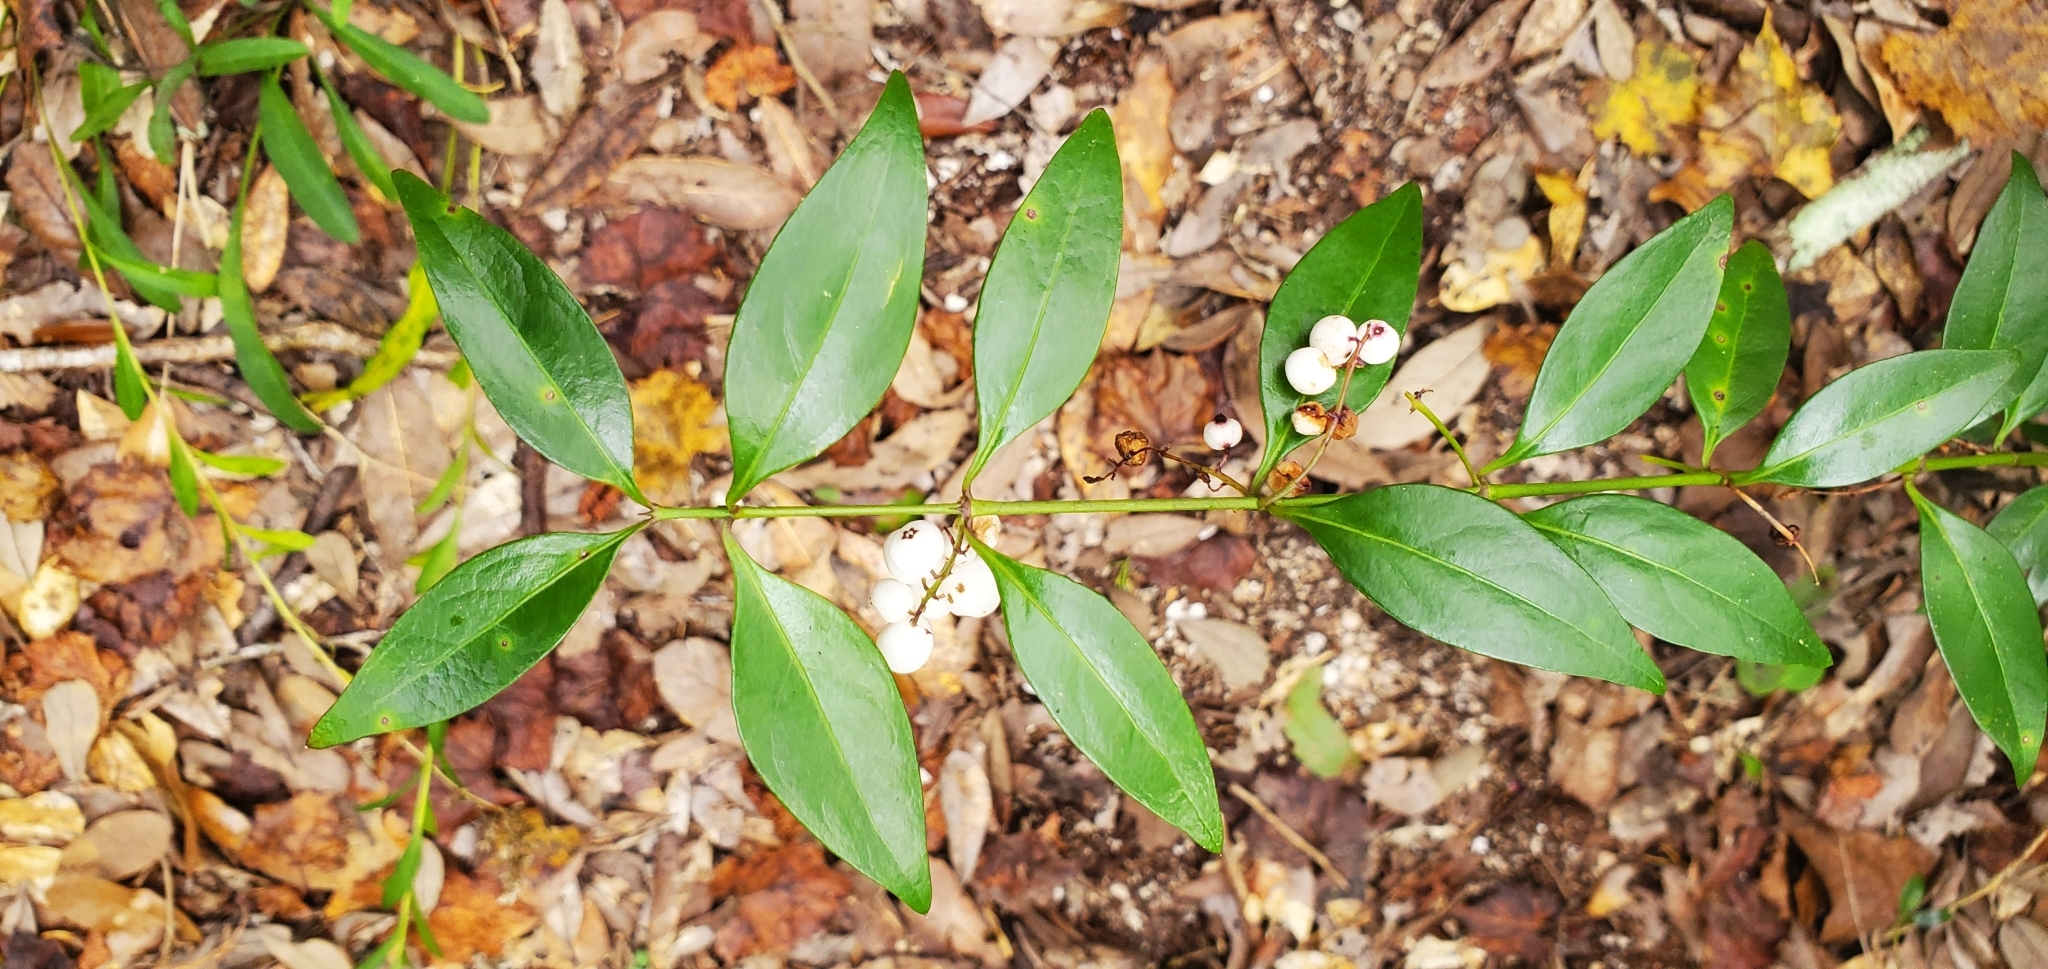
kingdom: Plantae
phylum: Tracheophyta
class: Magnoliopsida
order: Gentianales
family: Rubiaceae
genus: Chiococca
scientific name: Chiococca alba
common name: Snowberry
